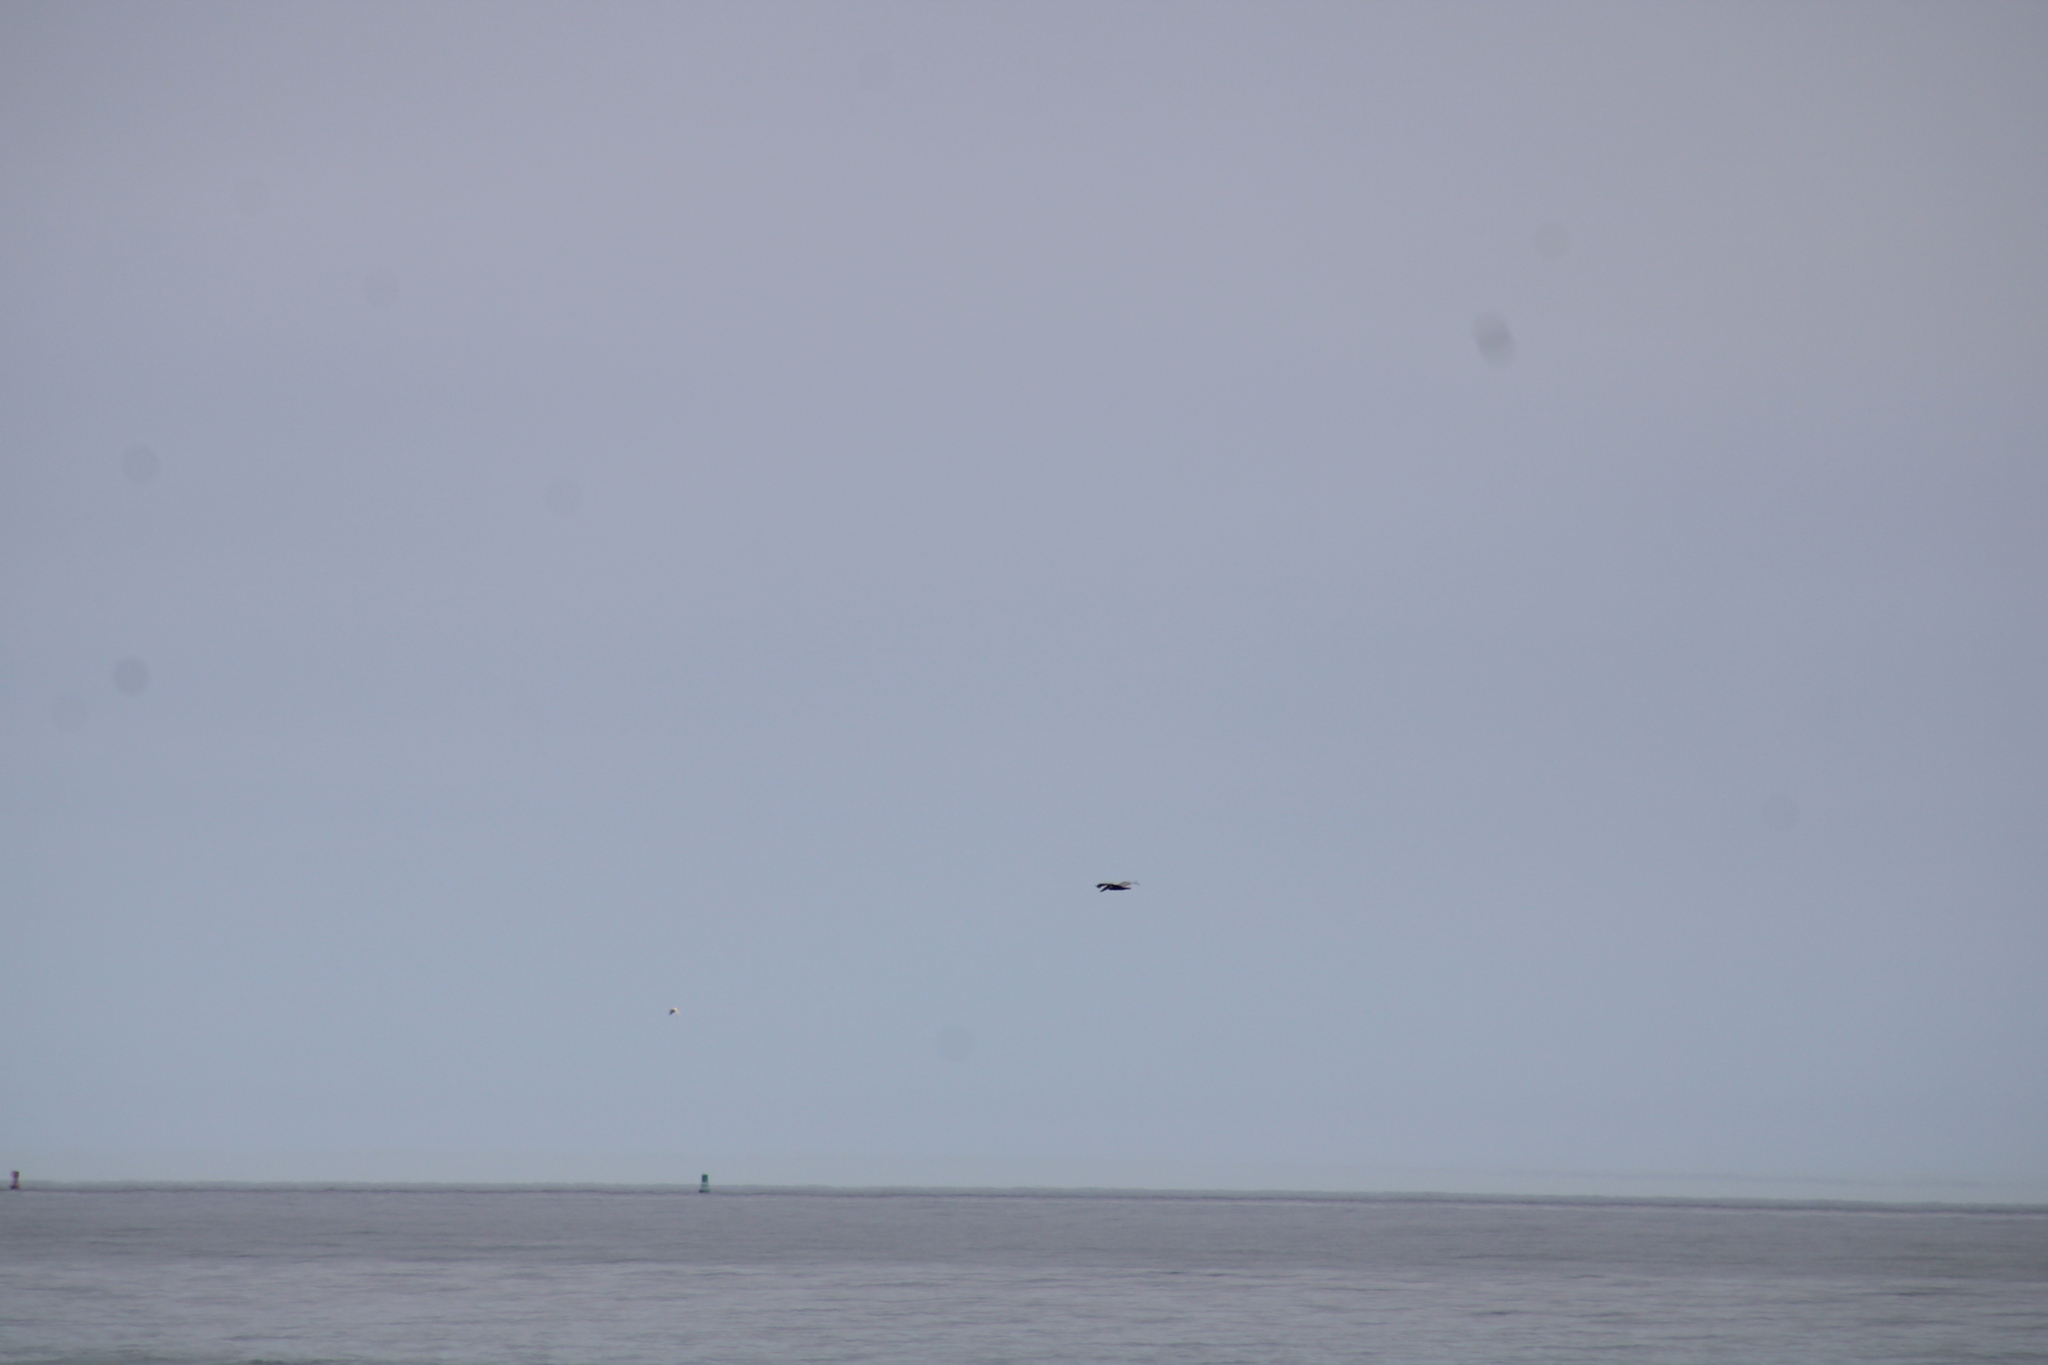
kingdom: Animalia
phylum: Chordata
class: Aves
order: Pelecaniformes
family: Pelecanidae
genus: Pelecanus
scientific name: Pelecanus occidentalis
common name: Brown pelican
